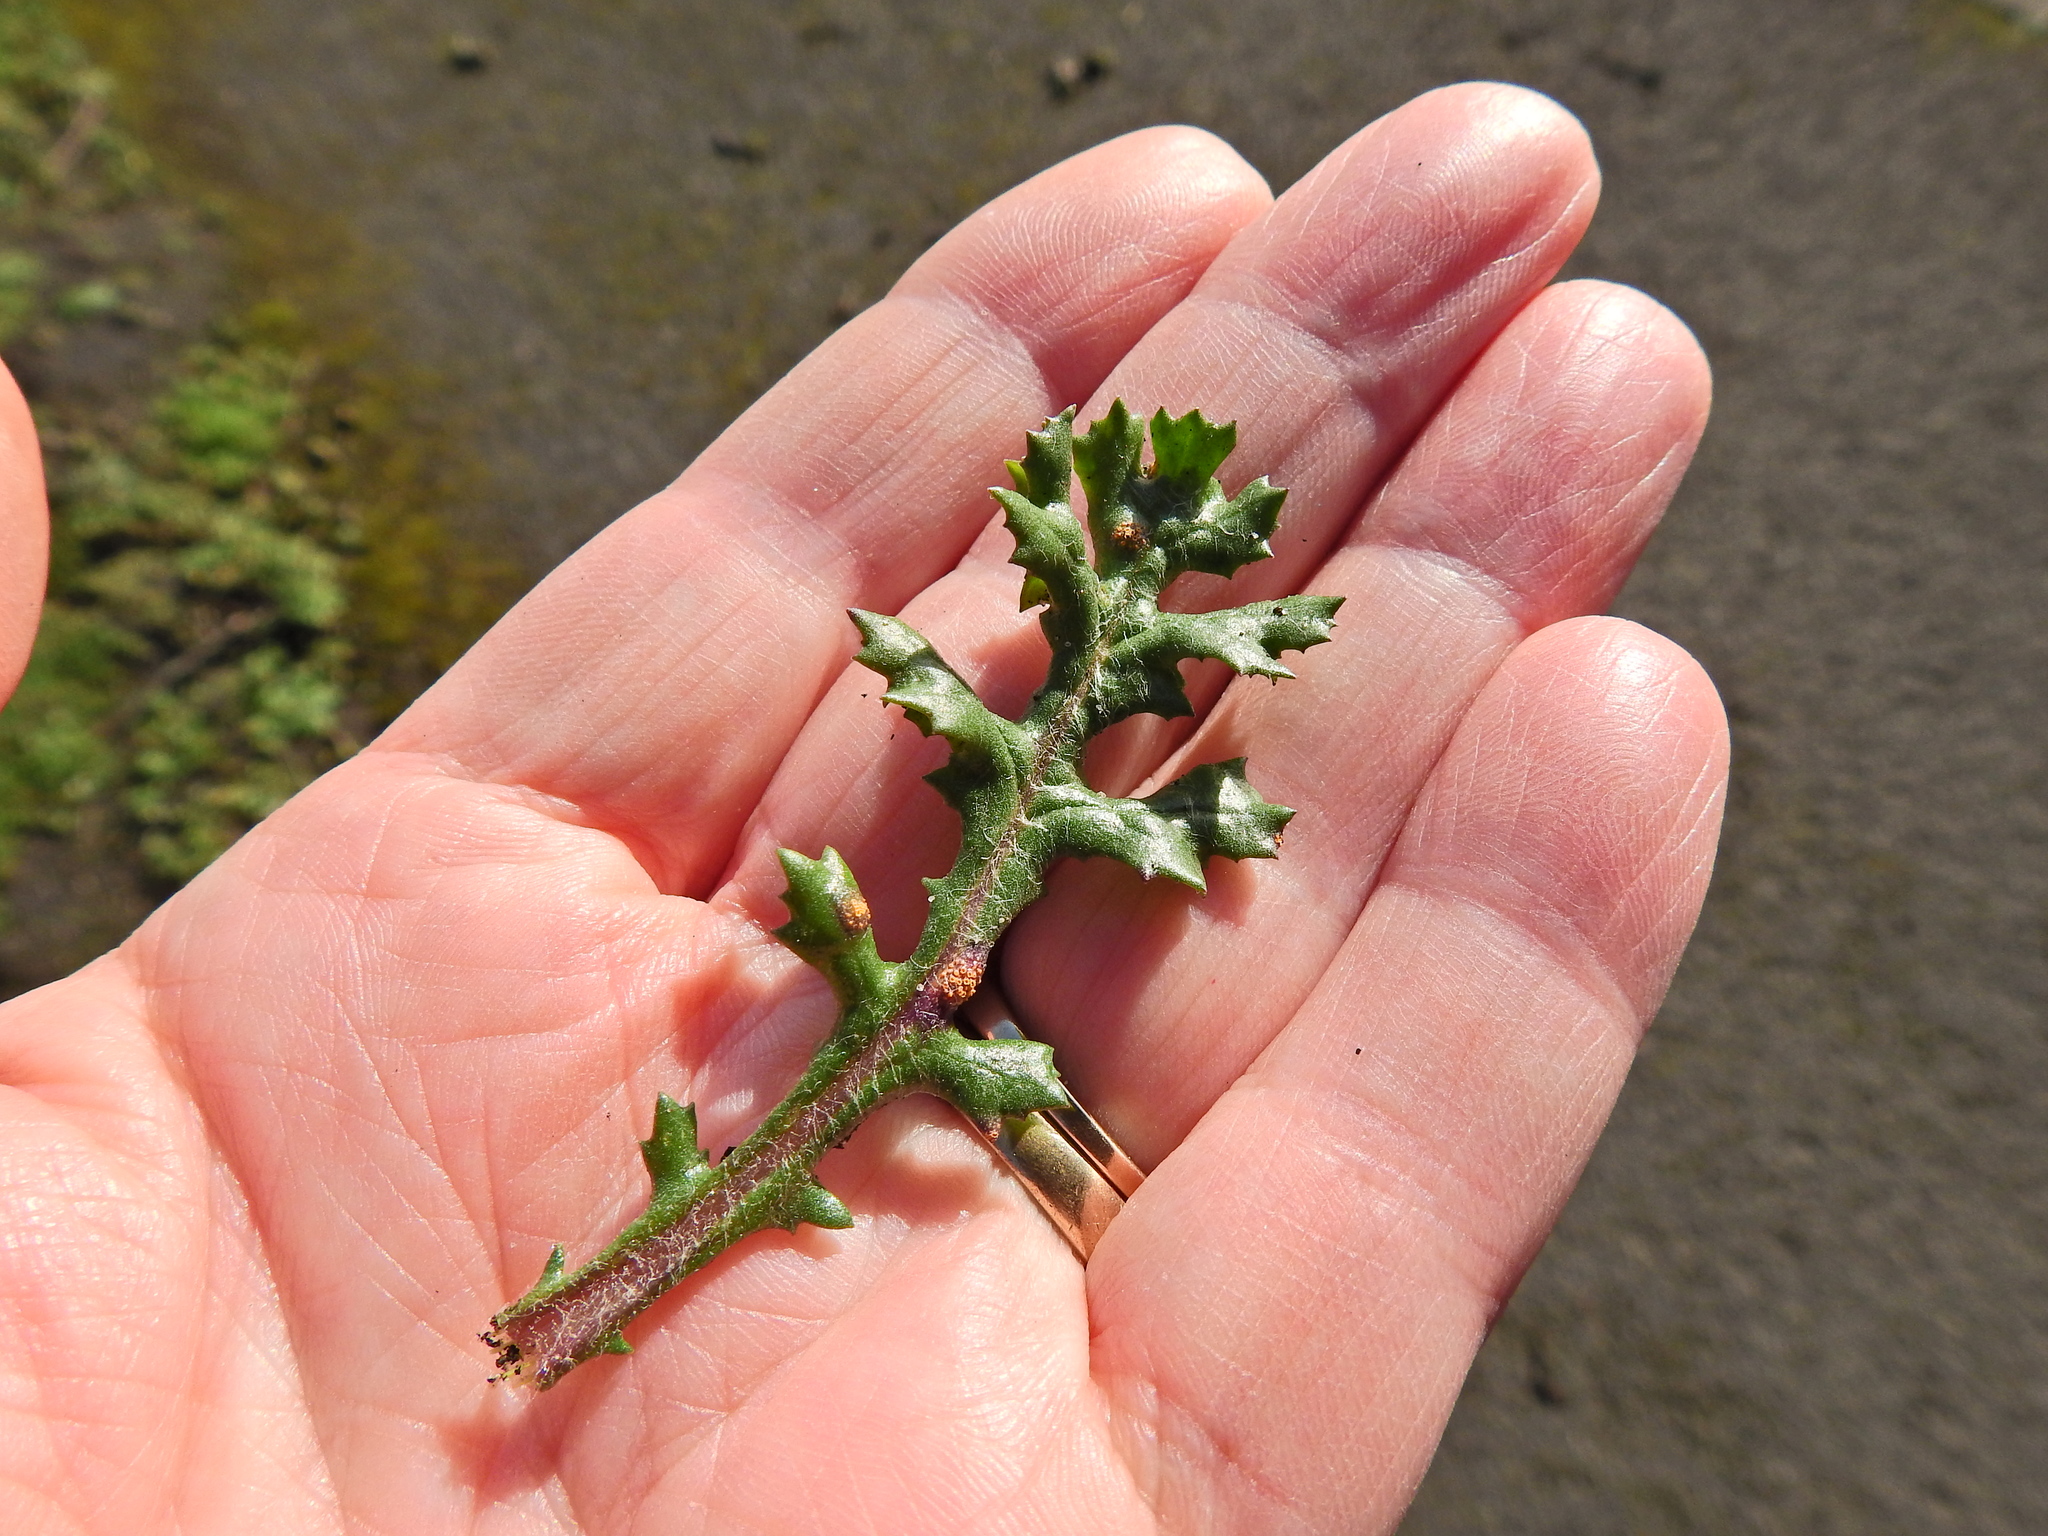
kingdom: Fungi
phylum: Basidiomycota
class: Pucciniomycetes
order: Pucciniales
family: Pucciniaceae
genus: Puccinia
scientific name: Puccinia lagenophorae
